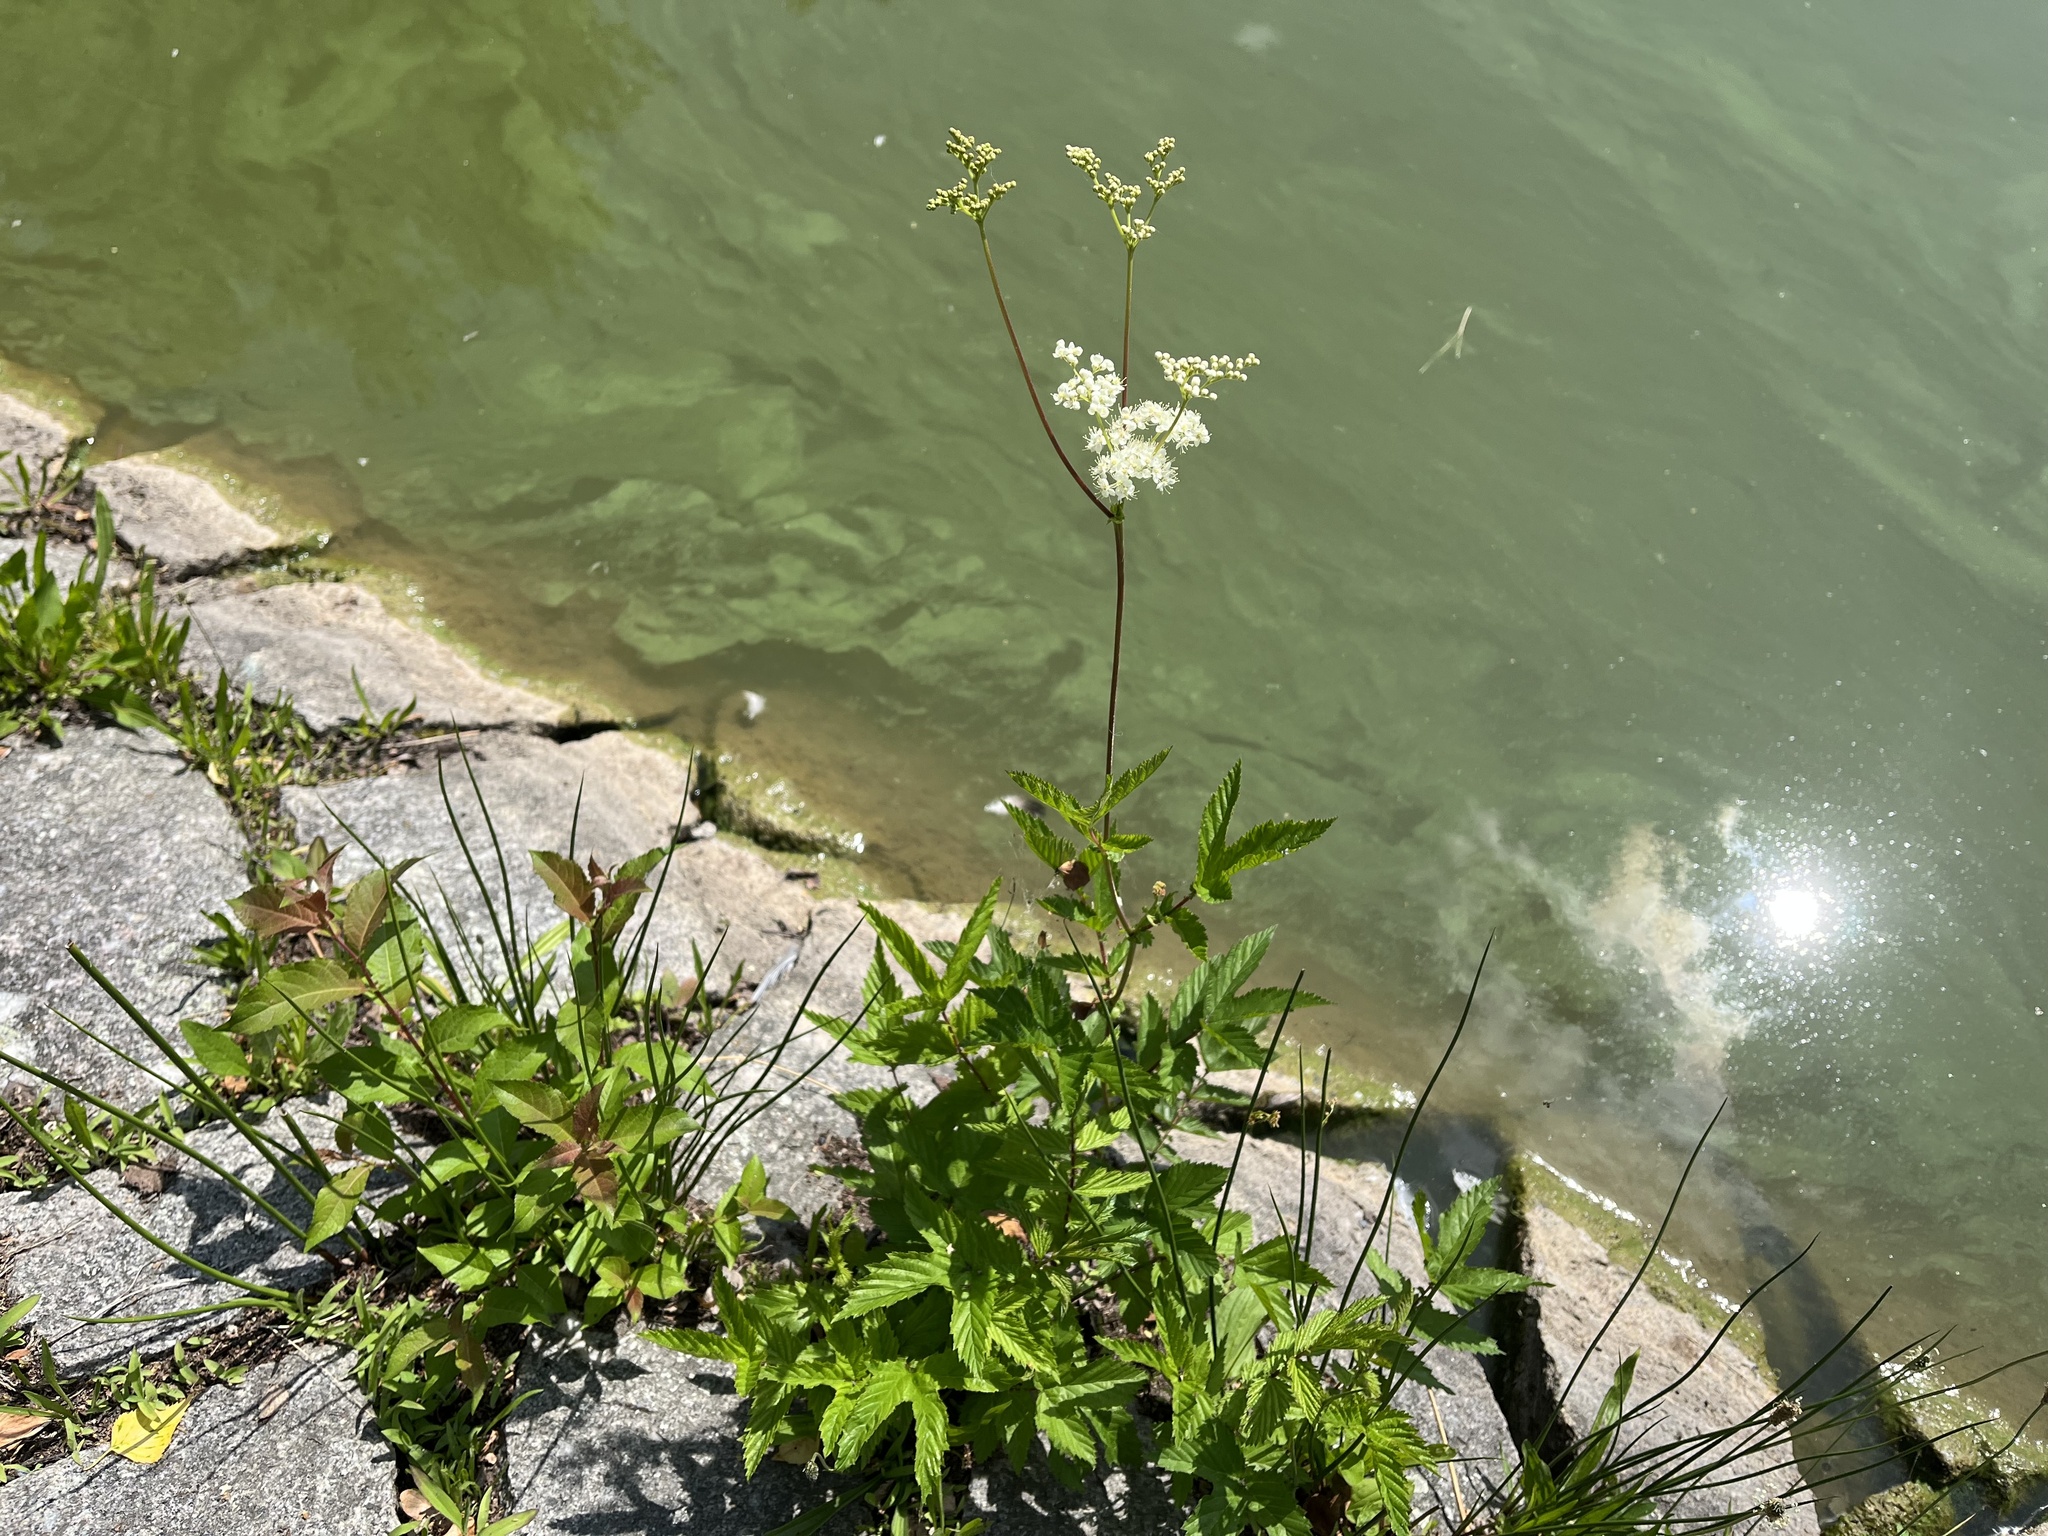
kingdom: Plantae
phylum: Tracheophyta
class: Magnoliopsida
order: Rosales
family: Rosaceae
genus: Filipendula
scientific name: Filipendula ulmaria
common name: Meadowsweet
